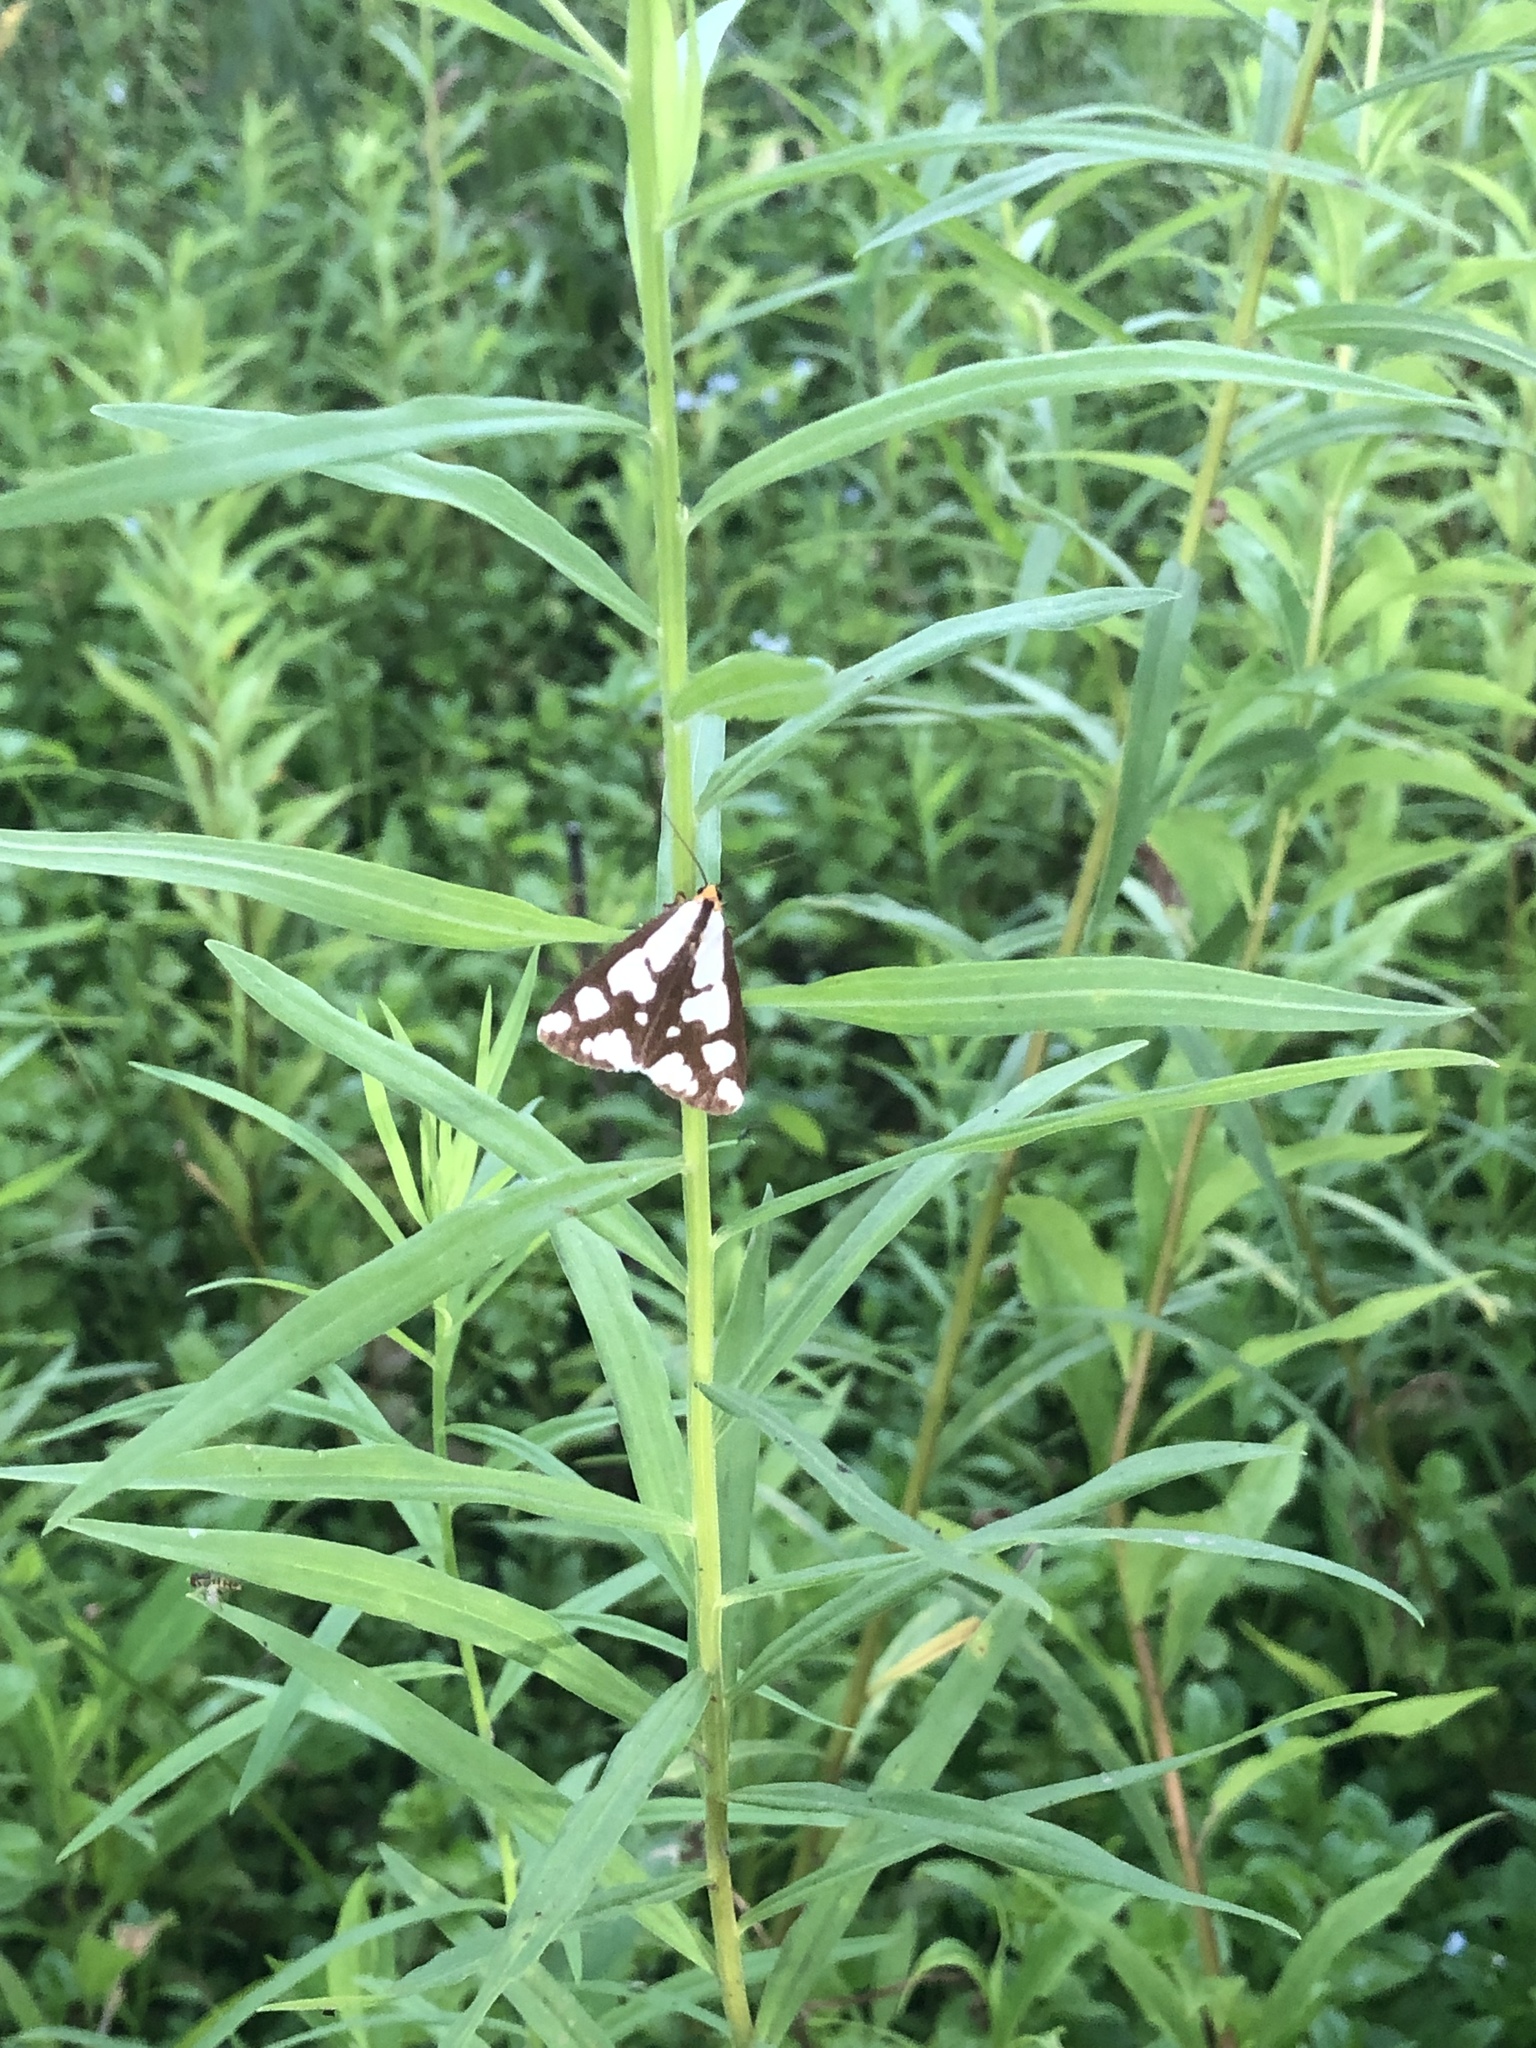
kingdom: Animalia
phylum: Arthropoda
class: Insecta
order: Lepidoptera
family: Erebidae
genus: Haploa
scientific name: Haploa confusa
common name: Confused haploa moth
